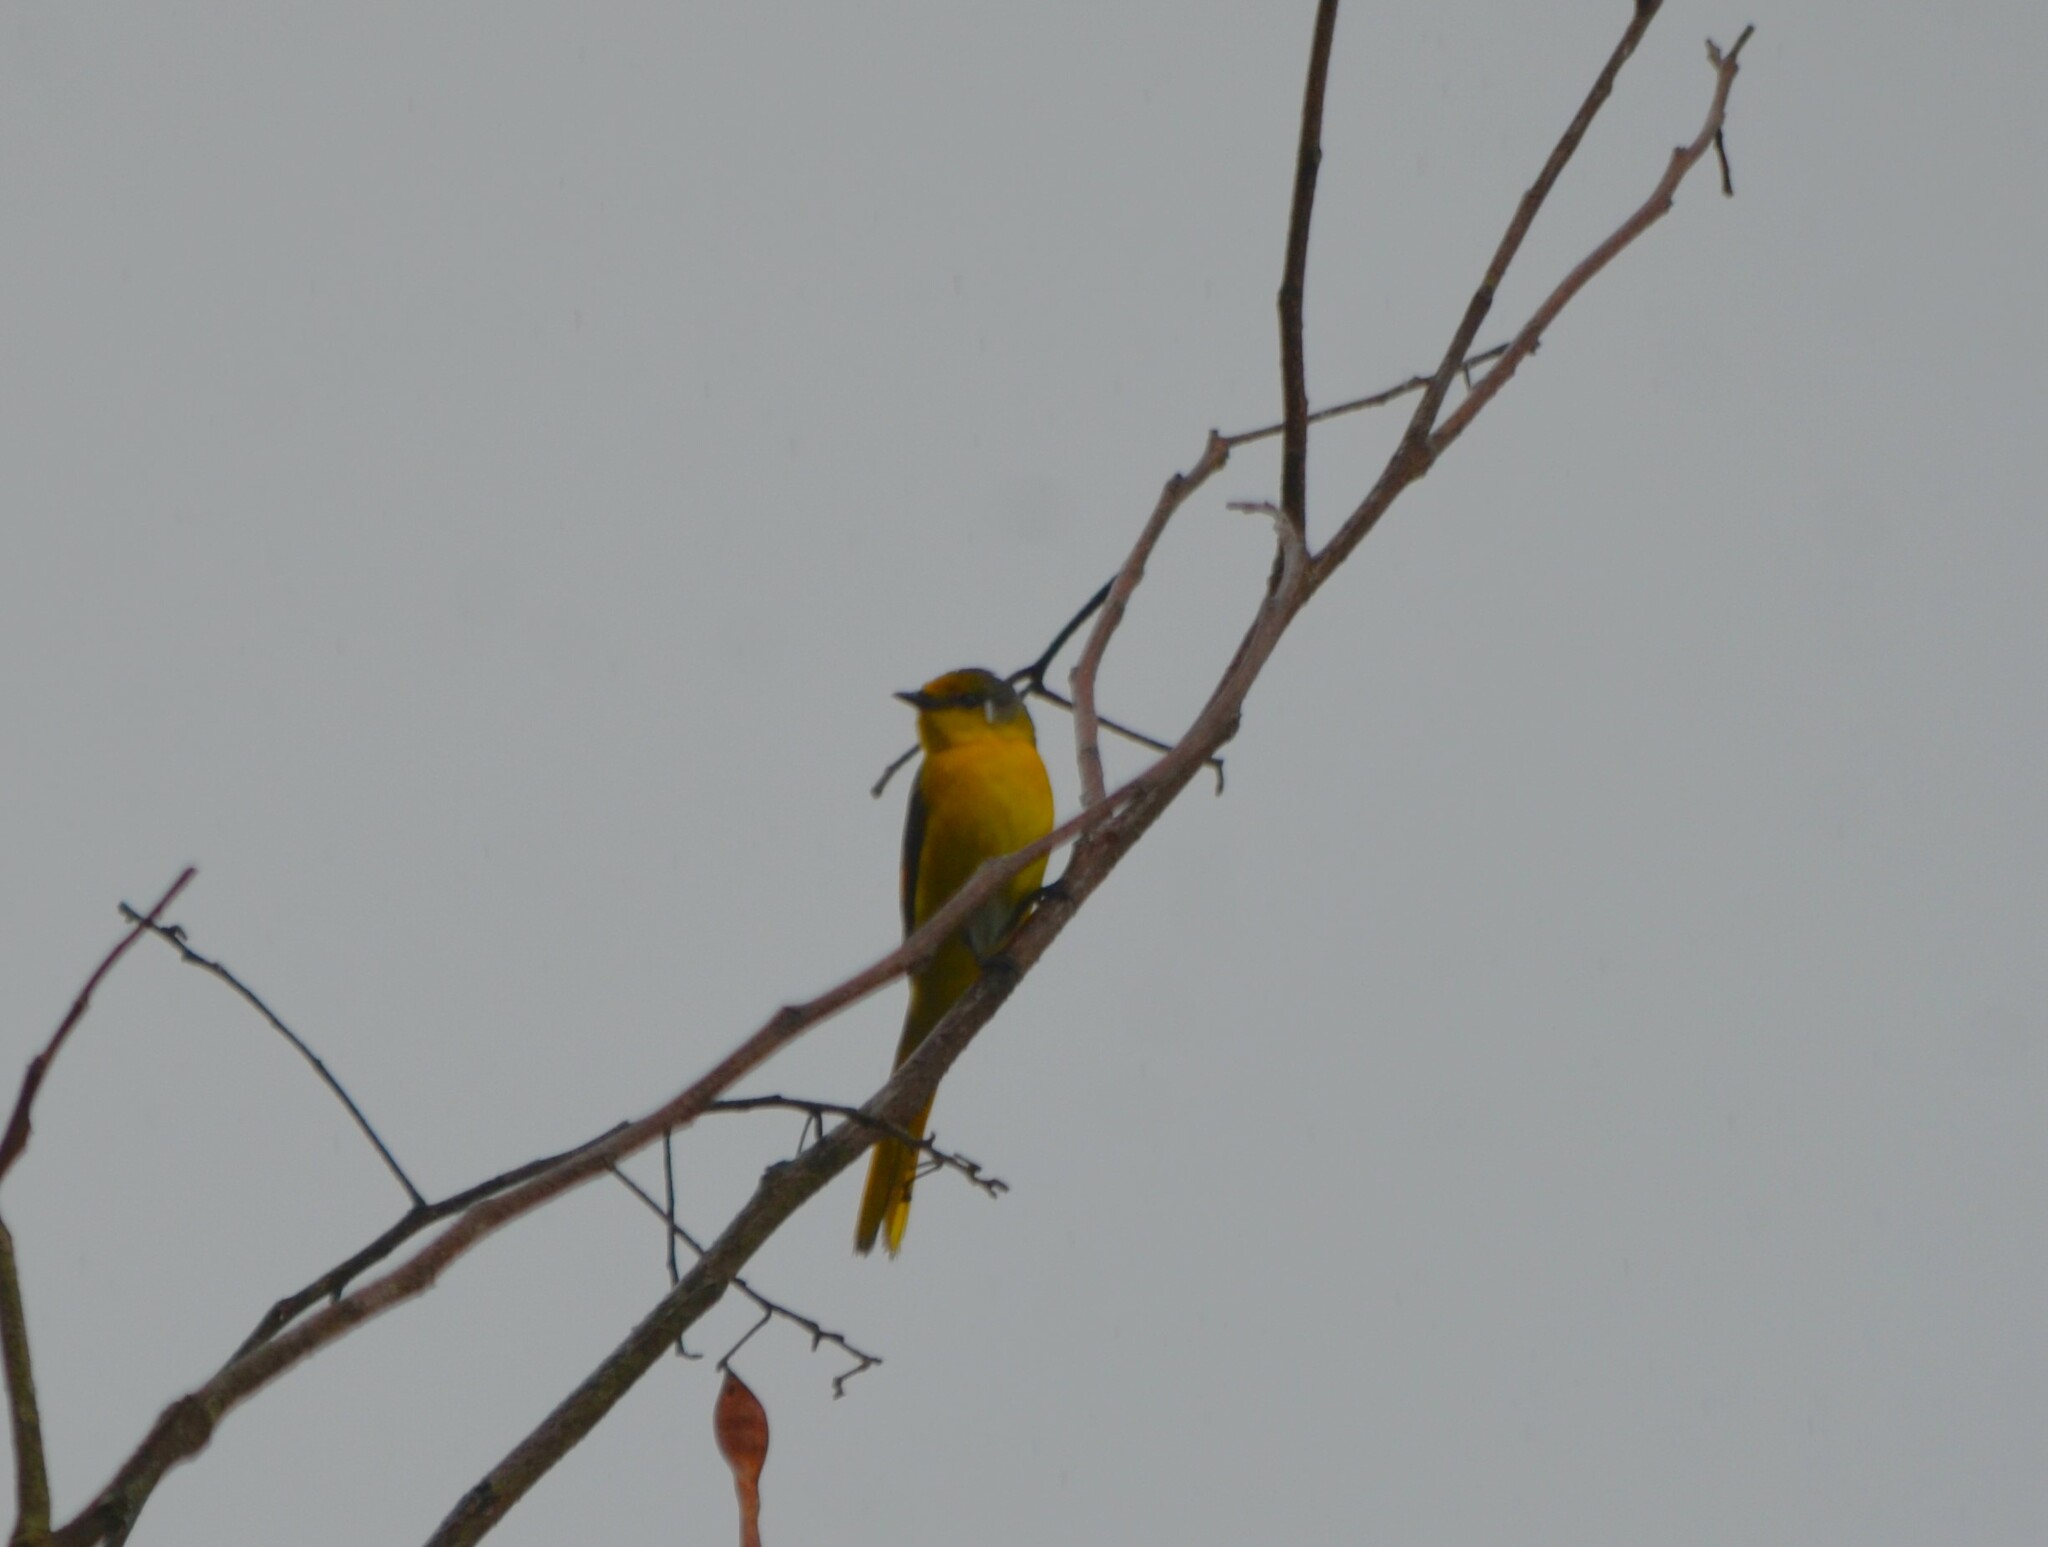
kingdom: Animalia
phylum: Chordata
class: Aves
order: Passeriformes
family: Campephagidae
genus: Pericrocotus
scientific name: Pericrocotus speciosus
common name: Scarlet minivet
